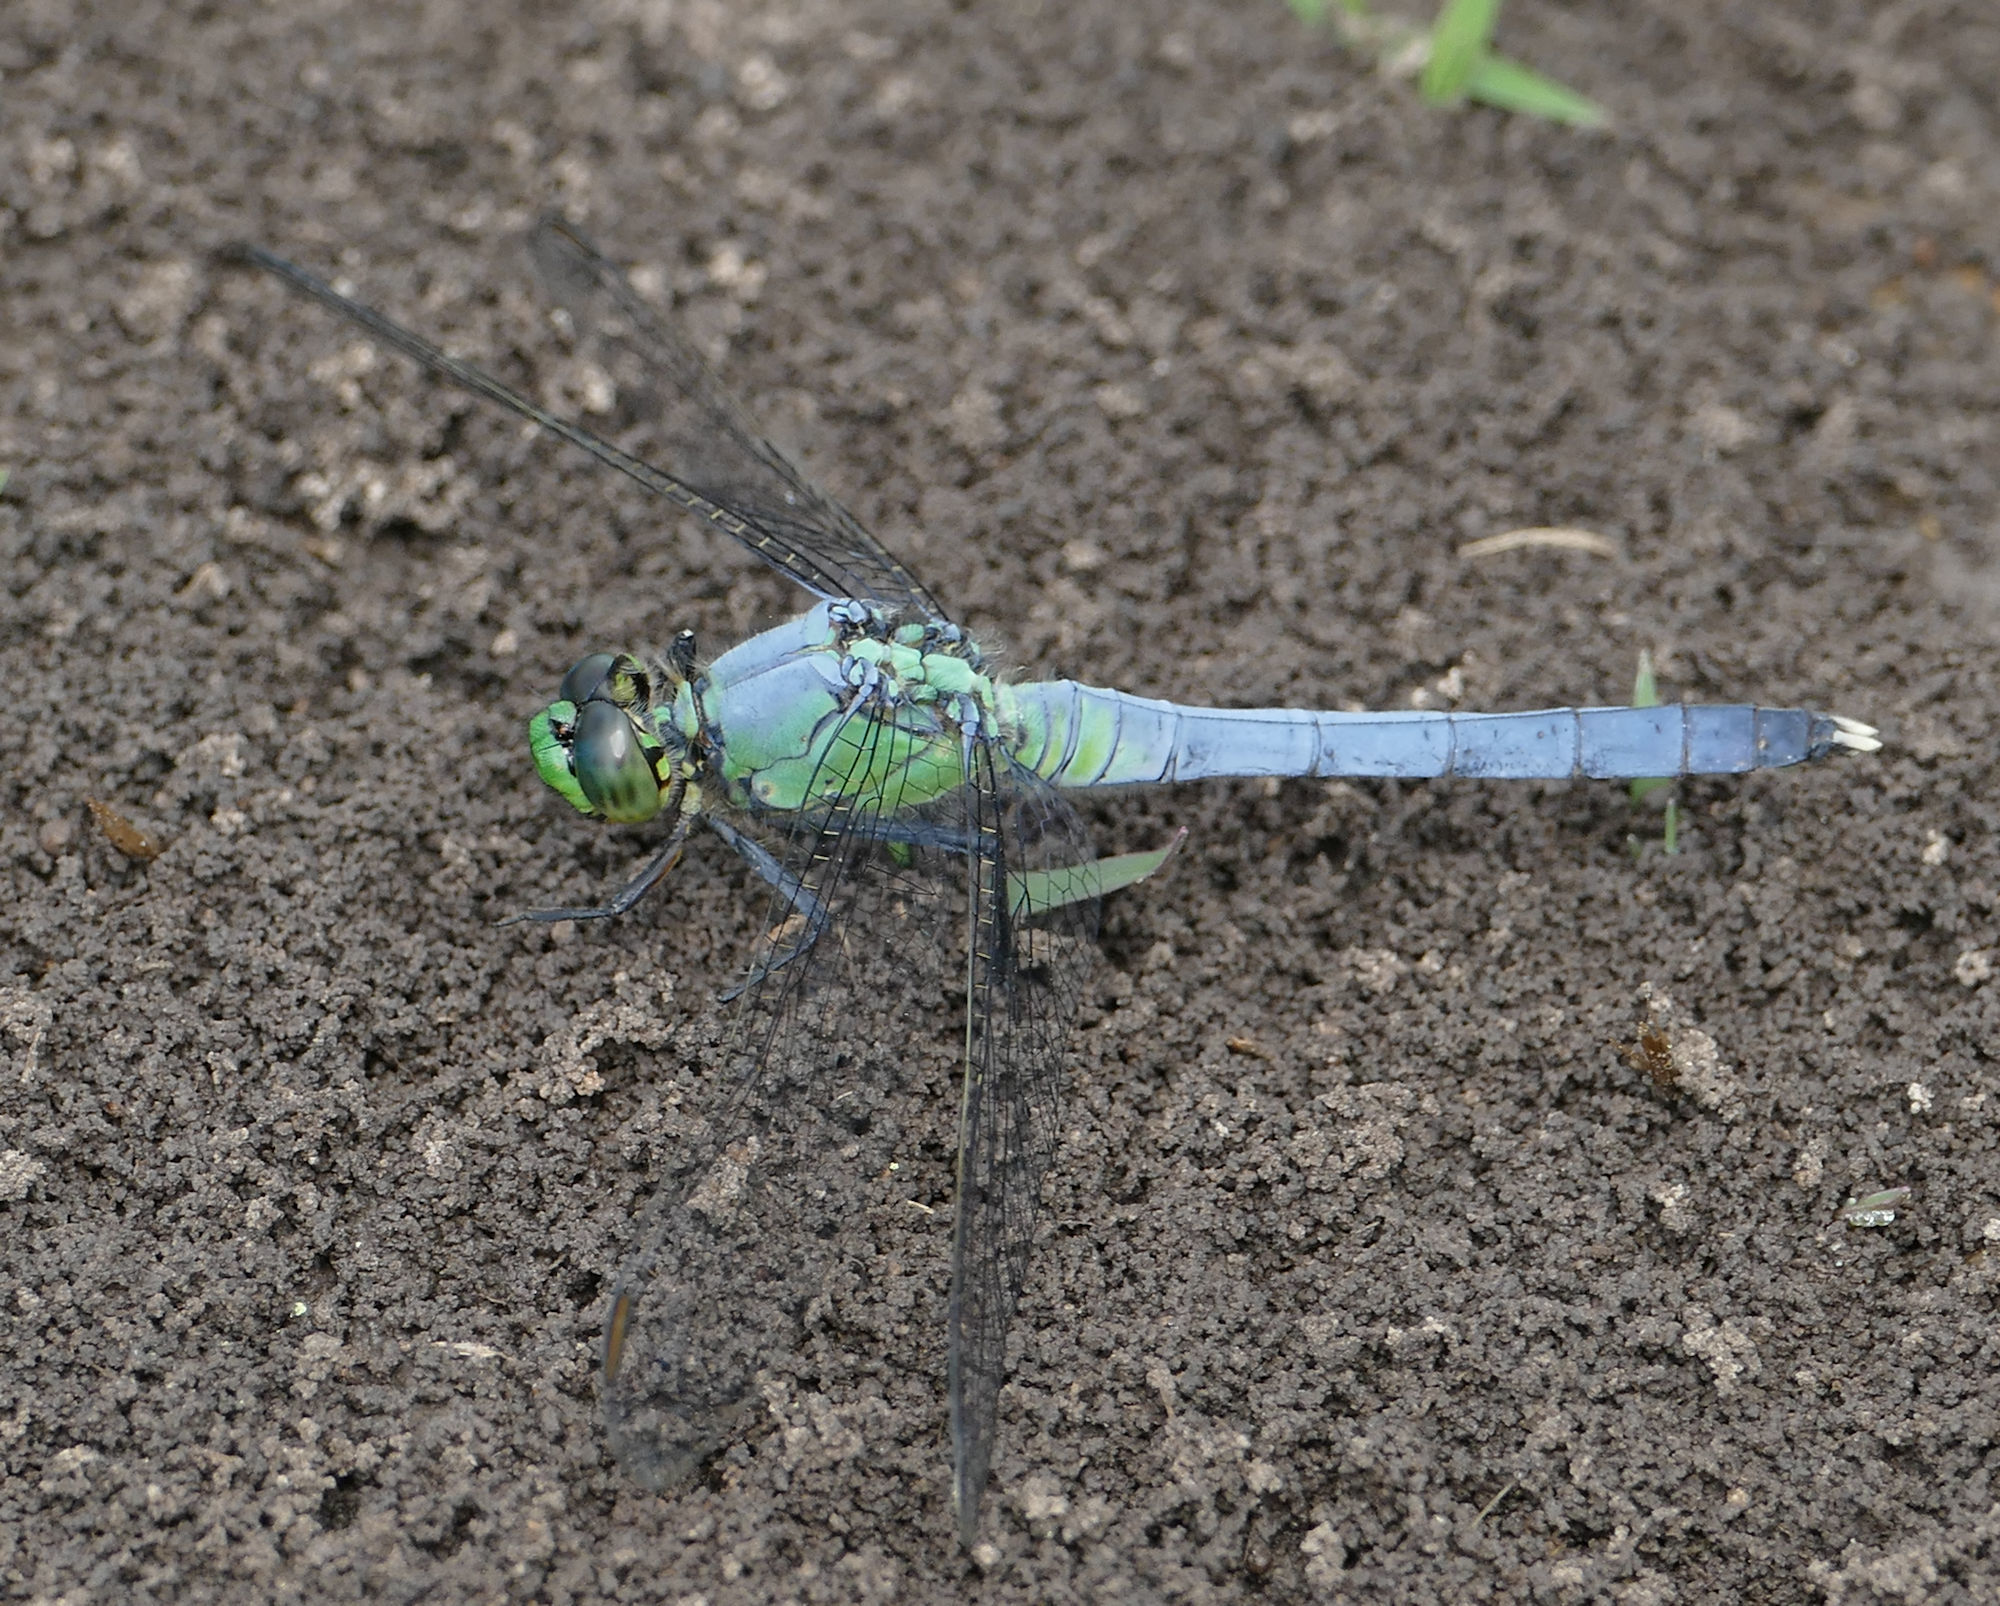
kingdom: Animalia
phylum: Arthropoda
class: Insecta
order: Odonata
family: Libellulidae
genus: Erythemis
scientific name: Erythemis simplicicollis
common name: Eastern pondhawk
